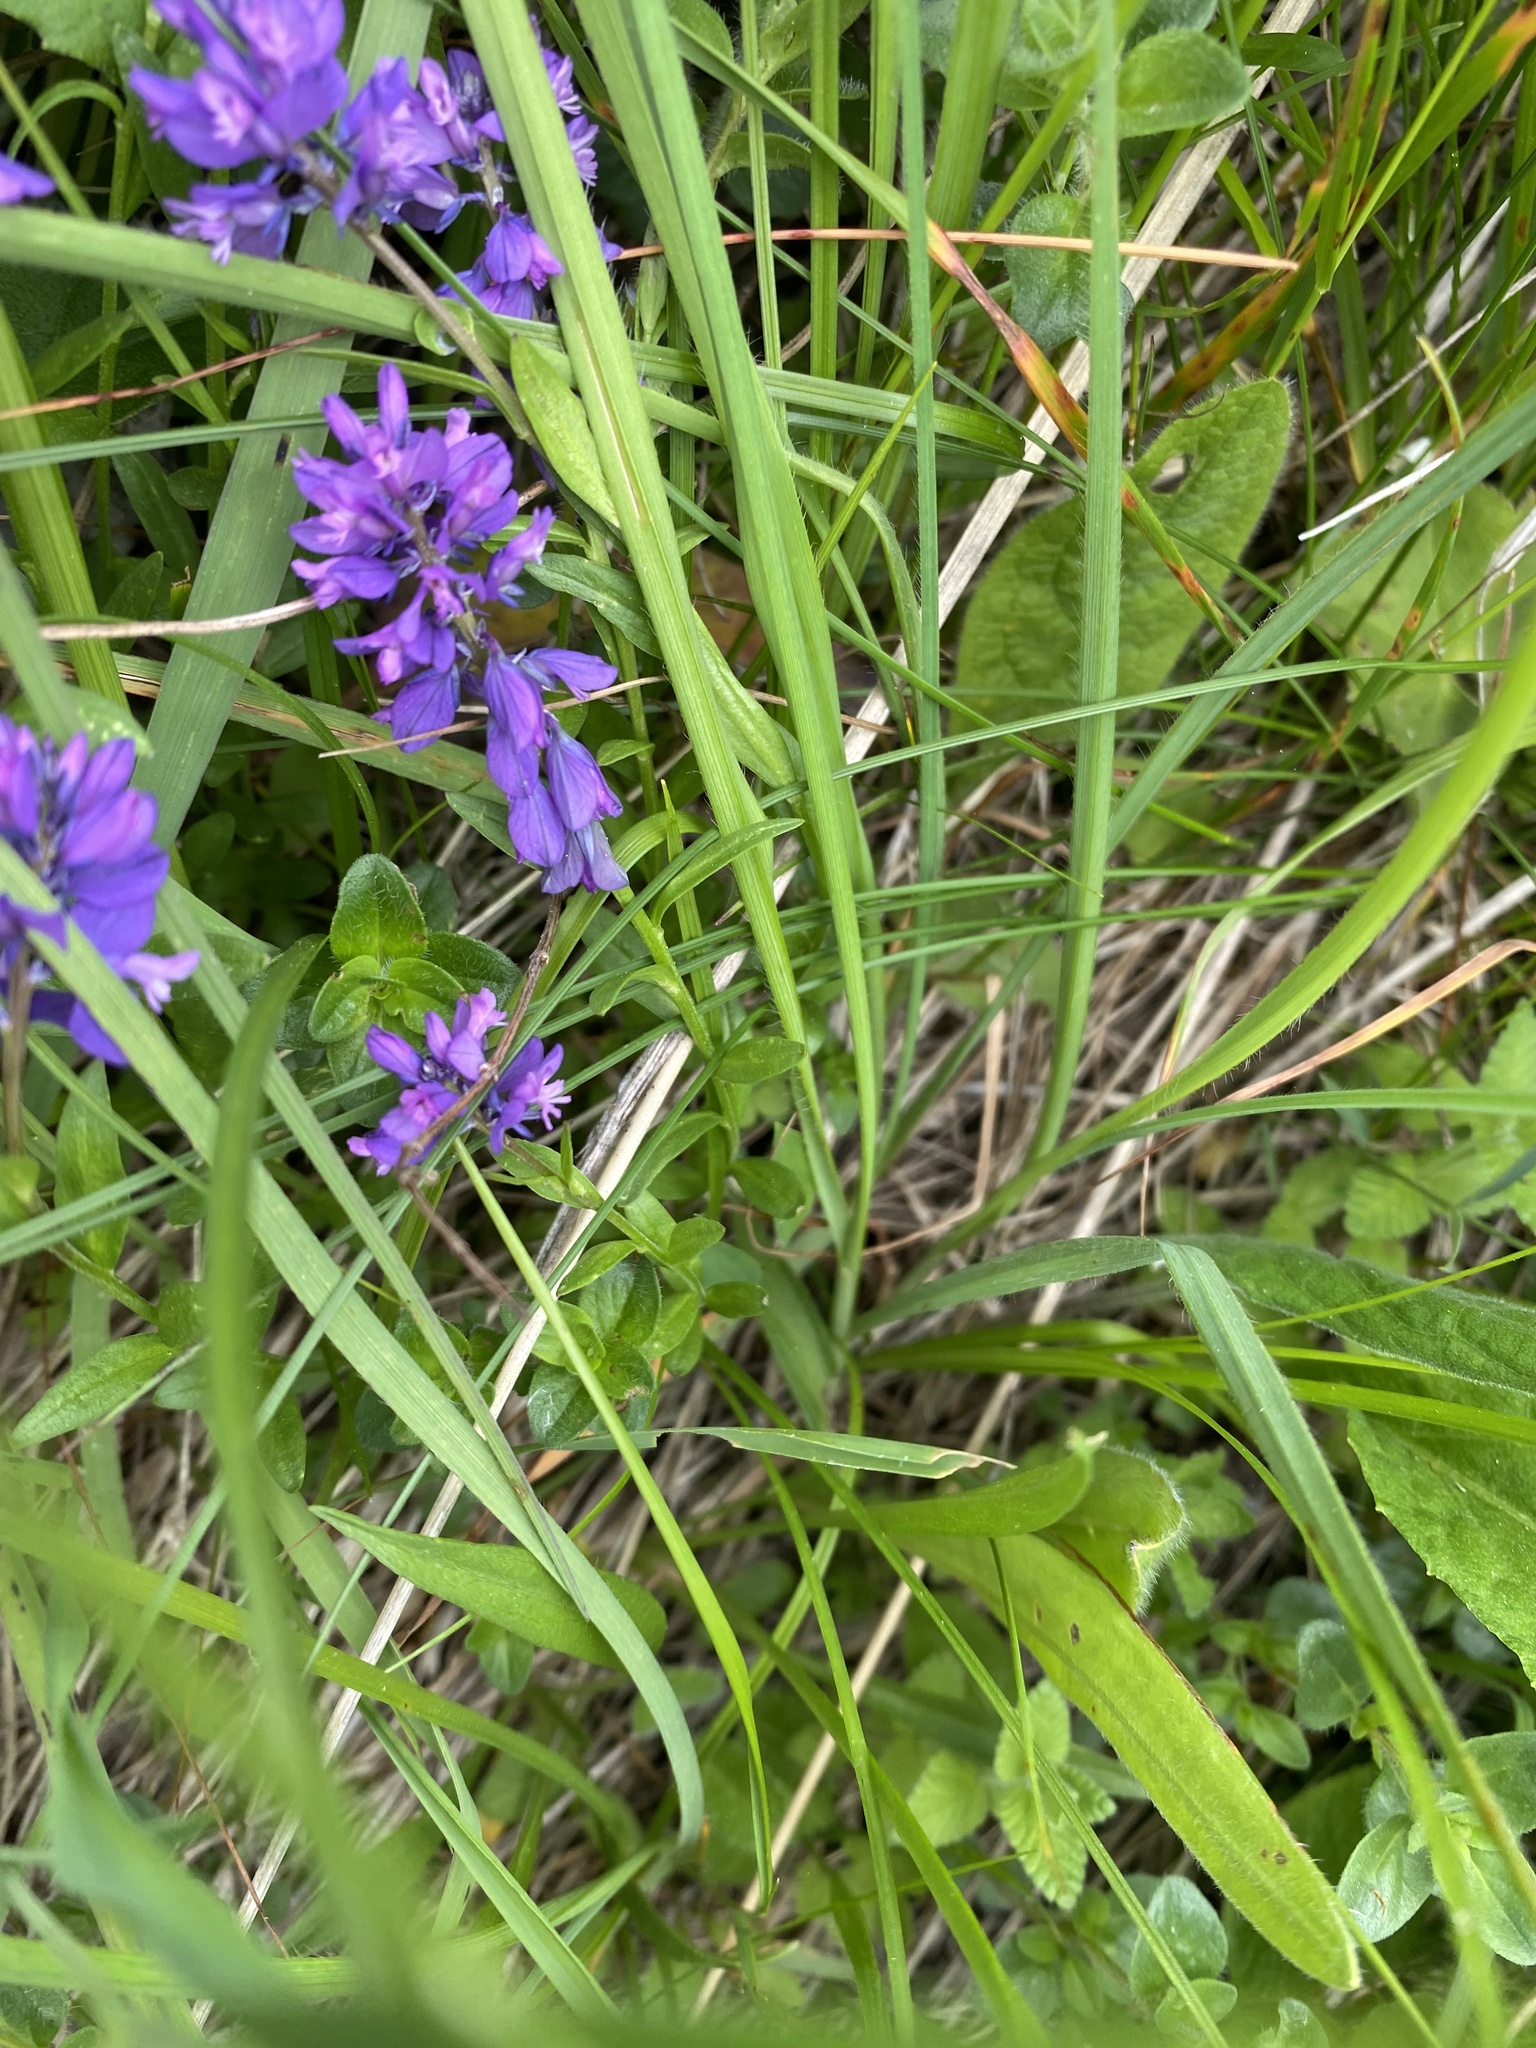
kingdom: Plantae
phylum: Tracheophyta
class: Magnoliopsida
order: Fabales
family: Polygalaceae
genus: Polygala
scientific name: Polygala caucasica
